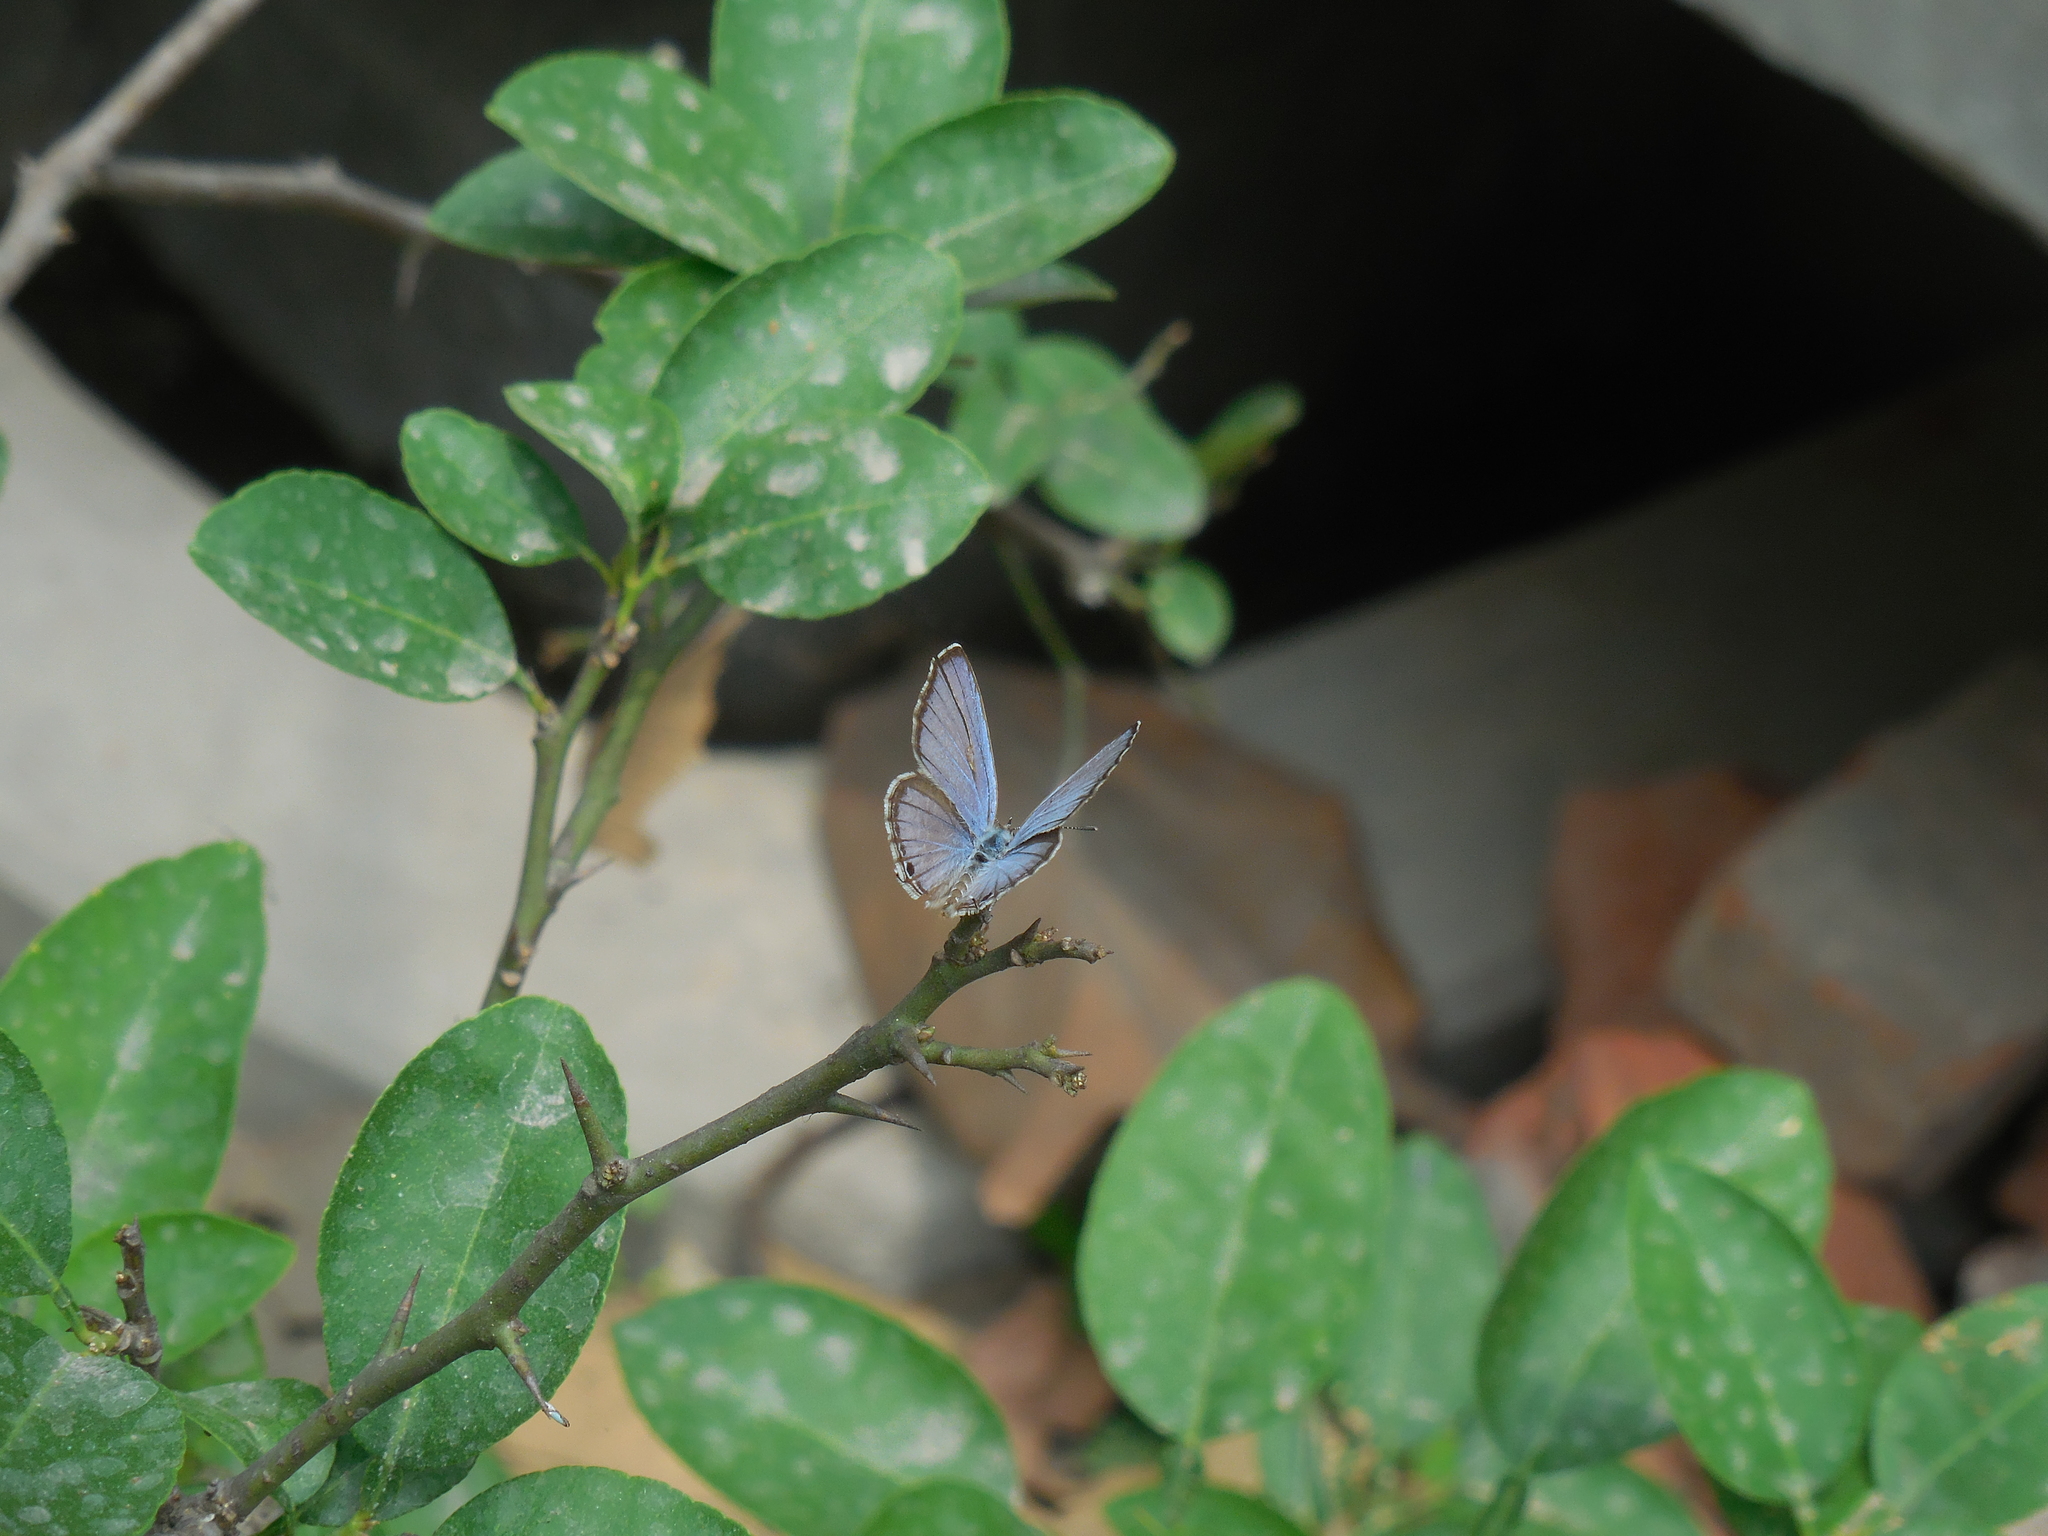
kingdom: Animalia
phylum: Arthropoda
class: Insecta
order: Lepidoptera
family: Lycaenidae
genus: Luthrodes
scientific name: Luthrodes pandava
